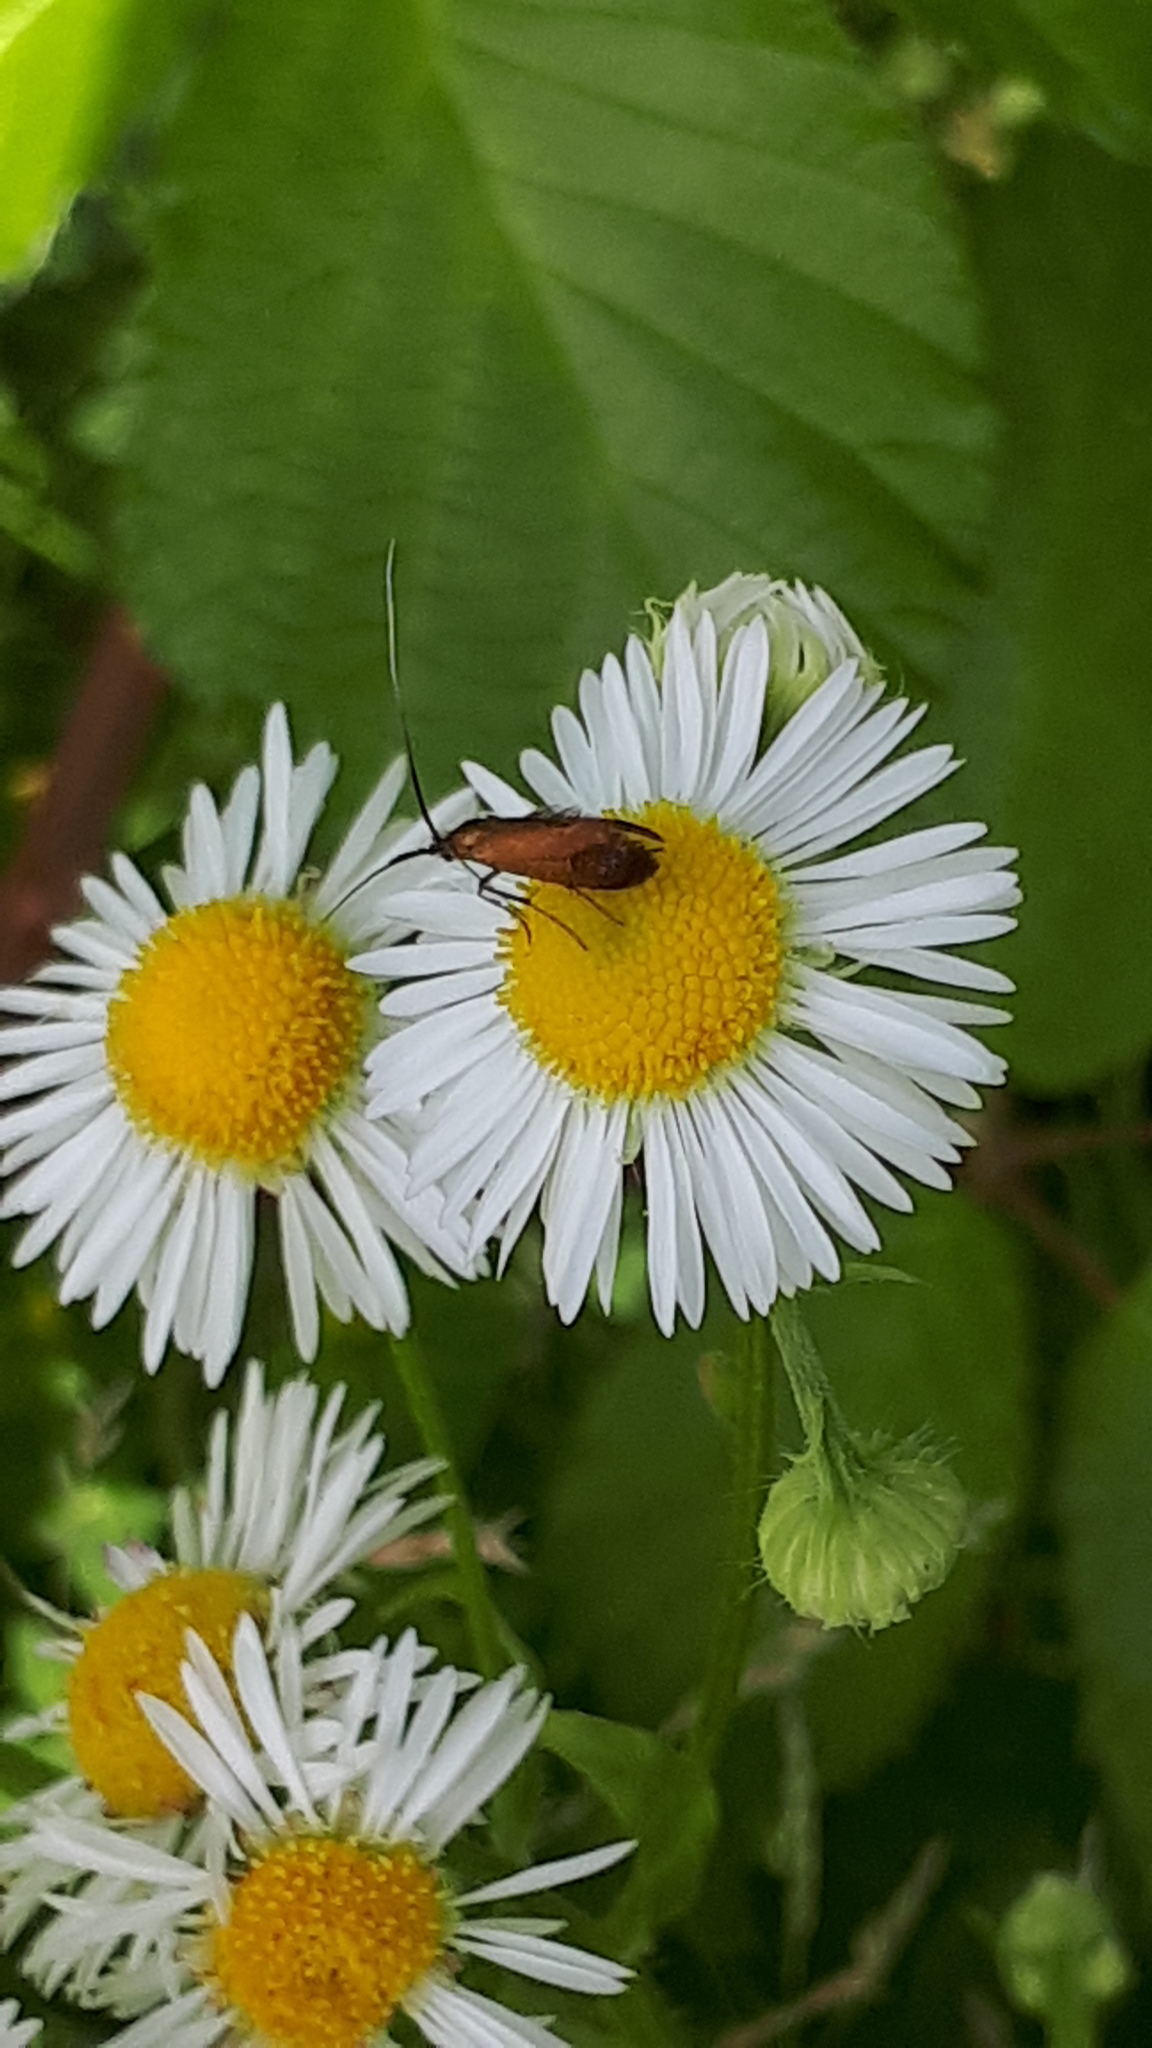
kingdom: Animalia
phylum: Arthropoda
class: Insecta
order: Lepidoptera
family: Adelidae
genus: Adela
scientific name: Adela violella
